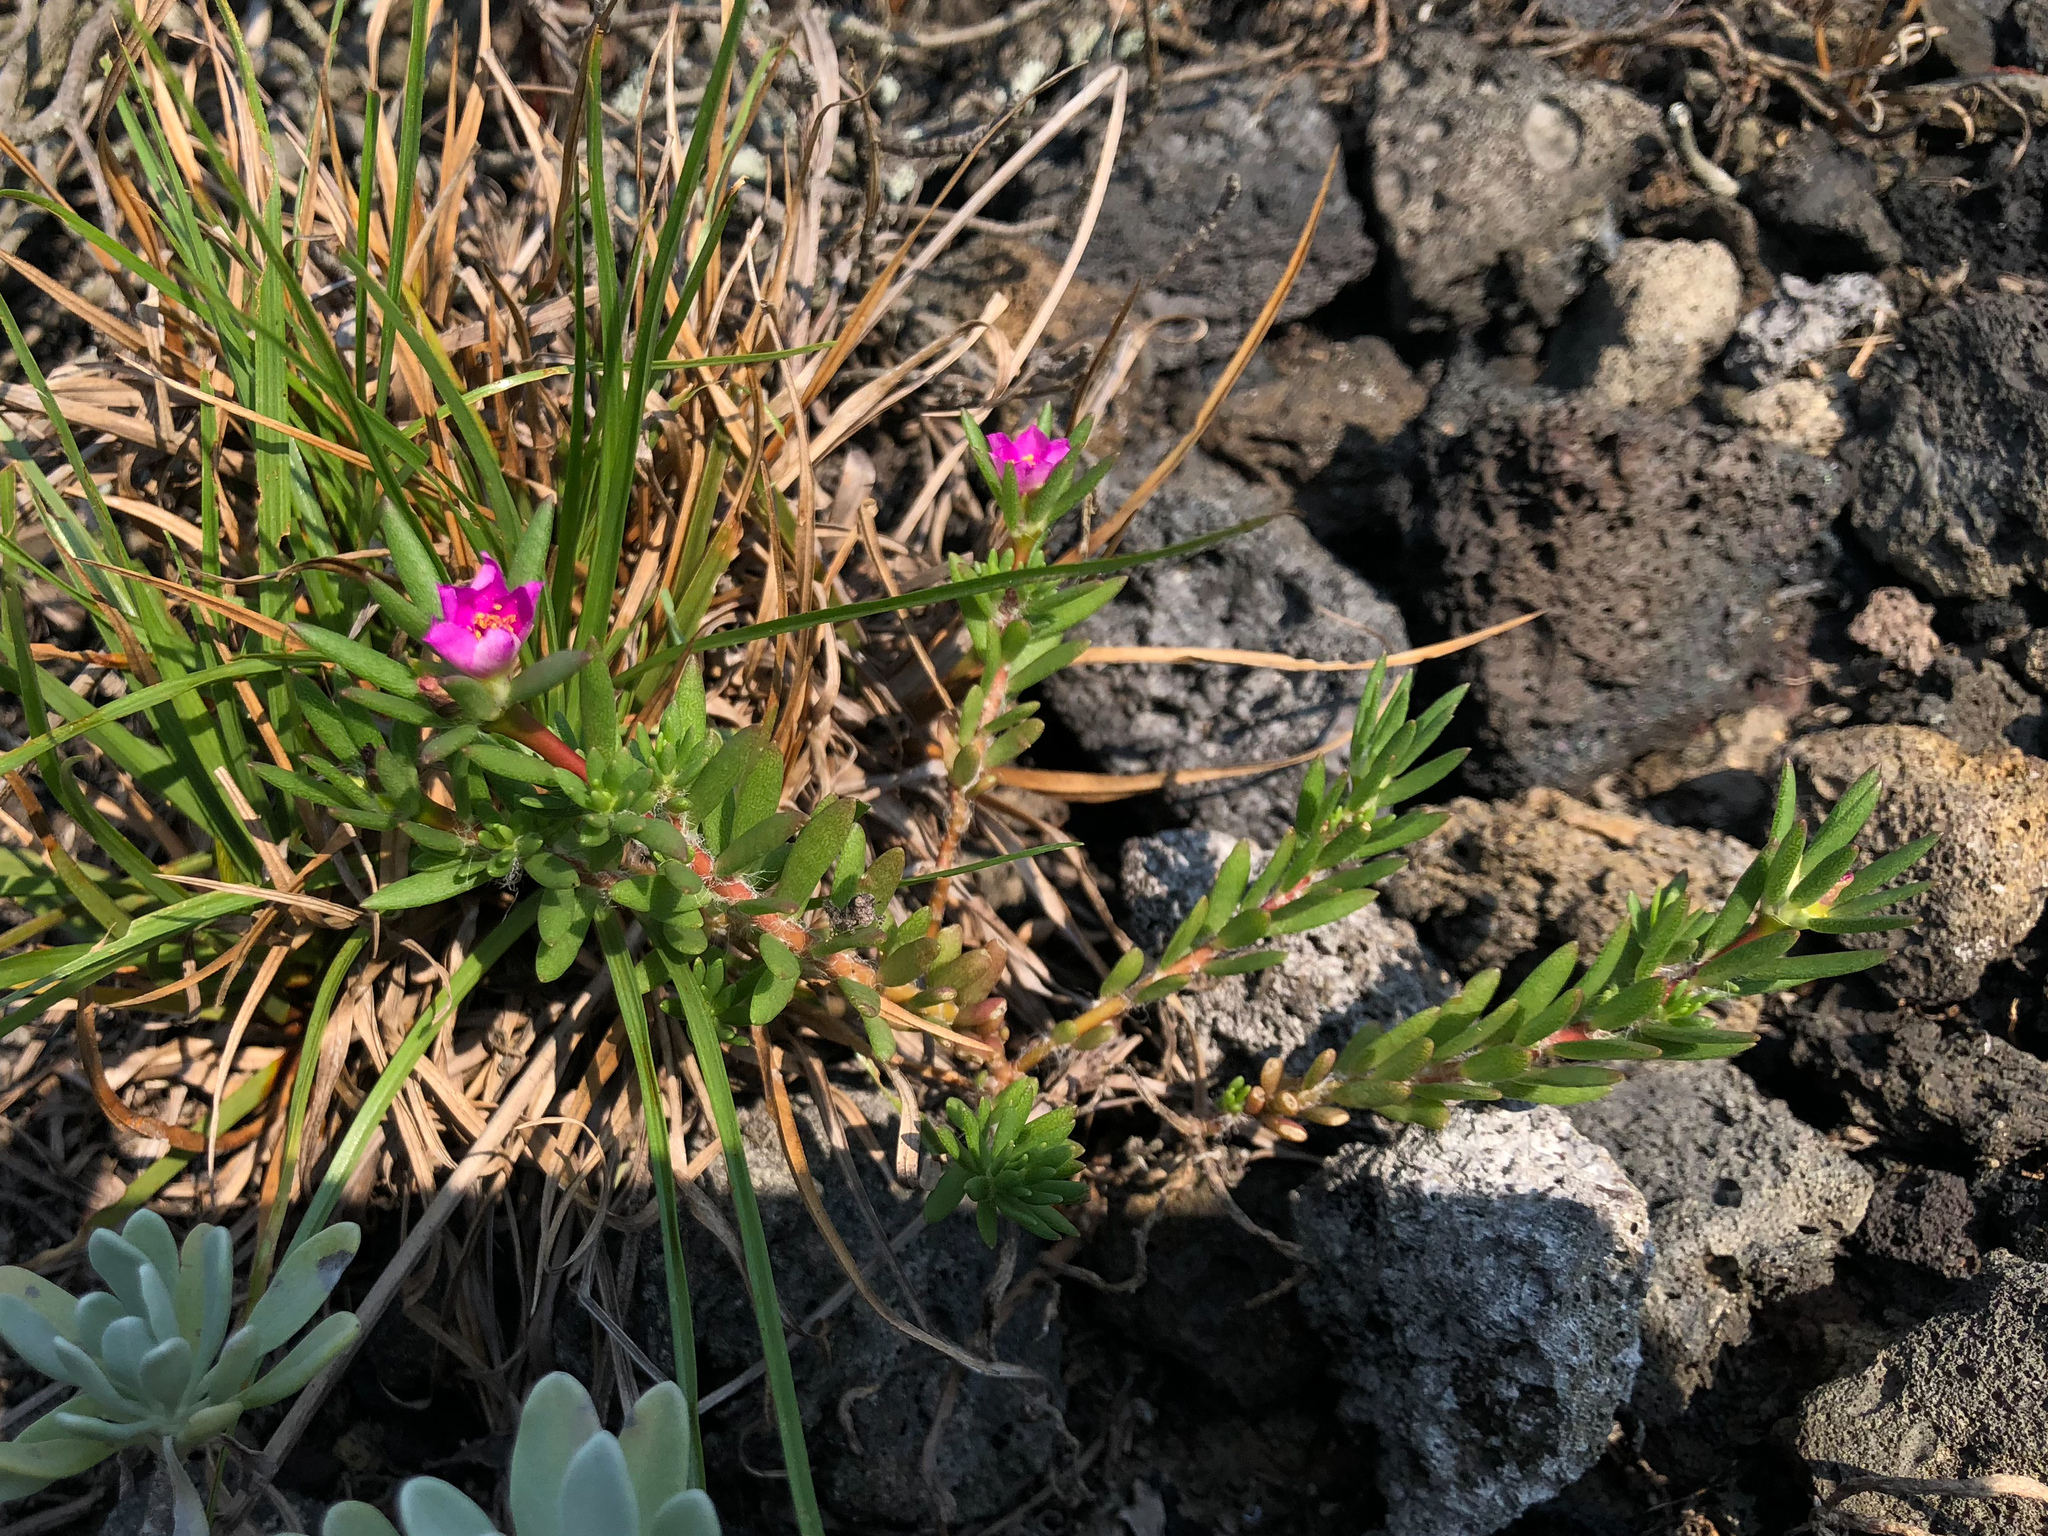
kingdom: Plantae
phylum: Tracheophyta
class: Magnoliopsida
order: Caryophyllales
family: Portulacaceae
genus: Portulaca
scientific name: Portulaca pilosa
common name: Kiss me quick
